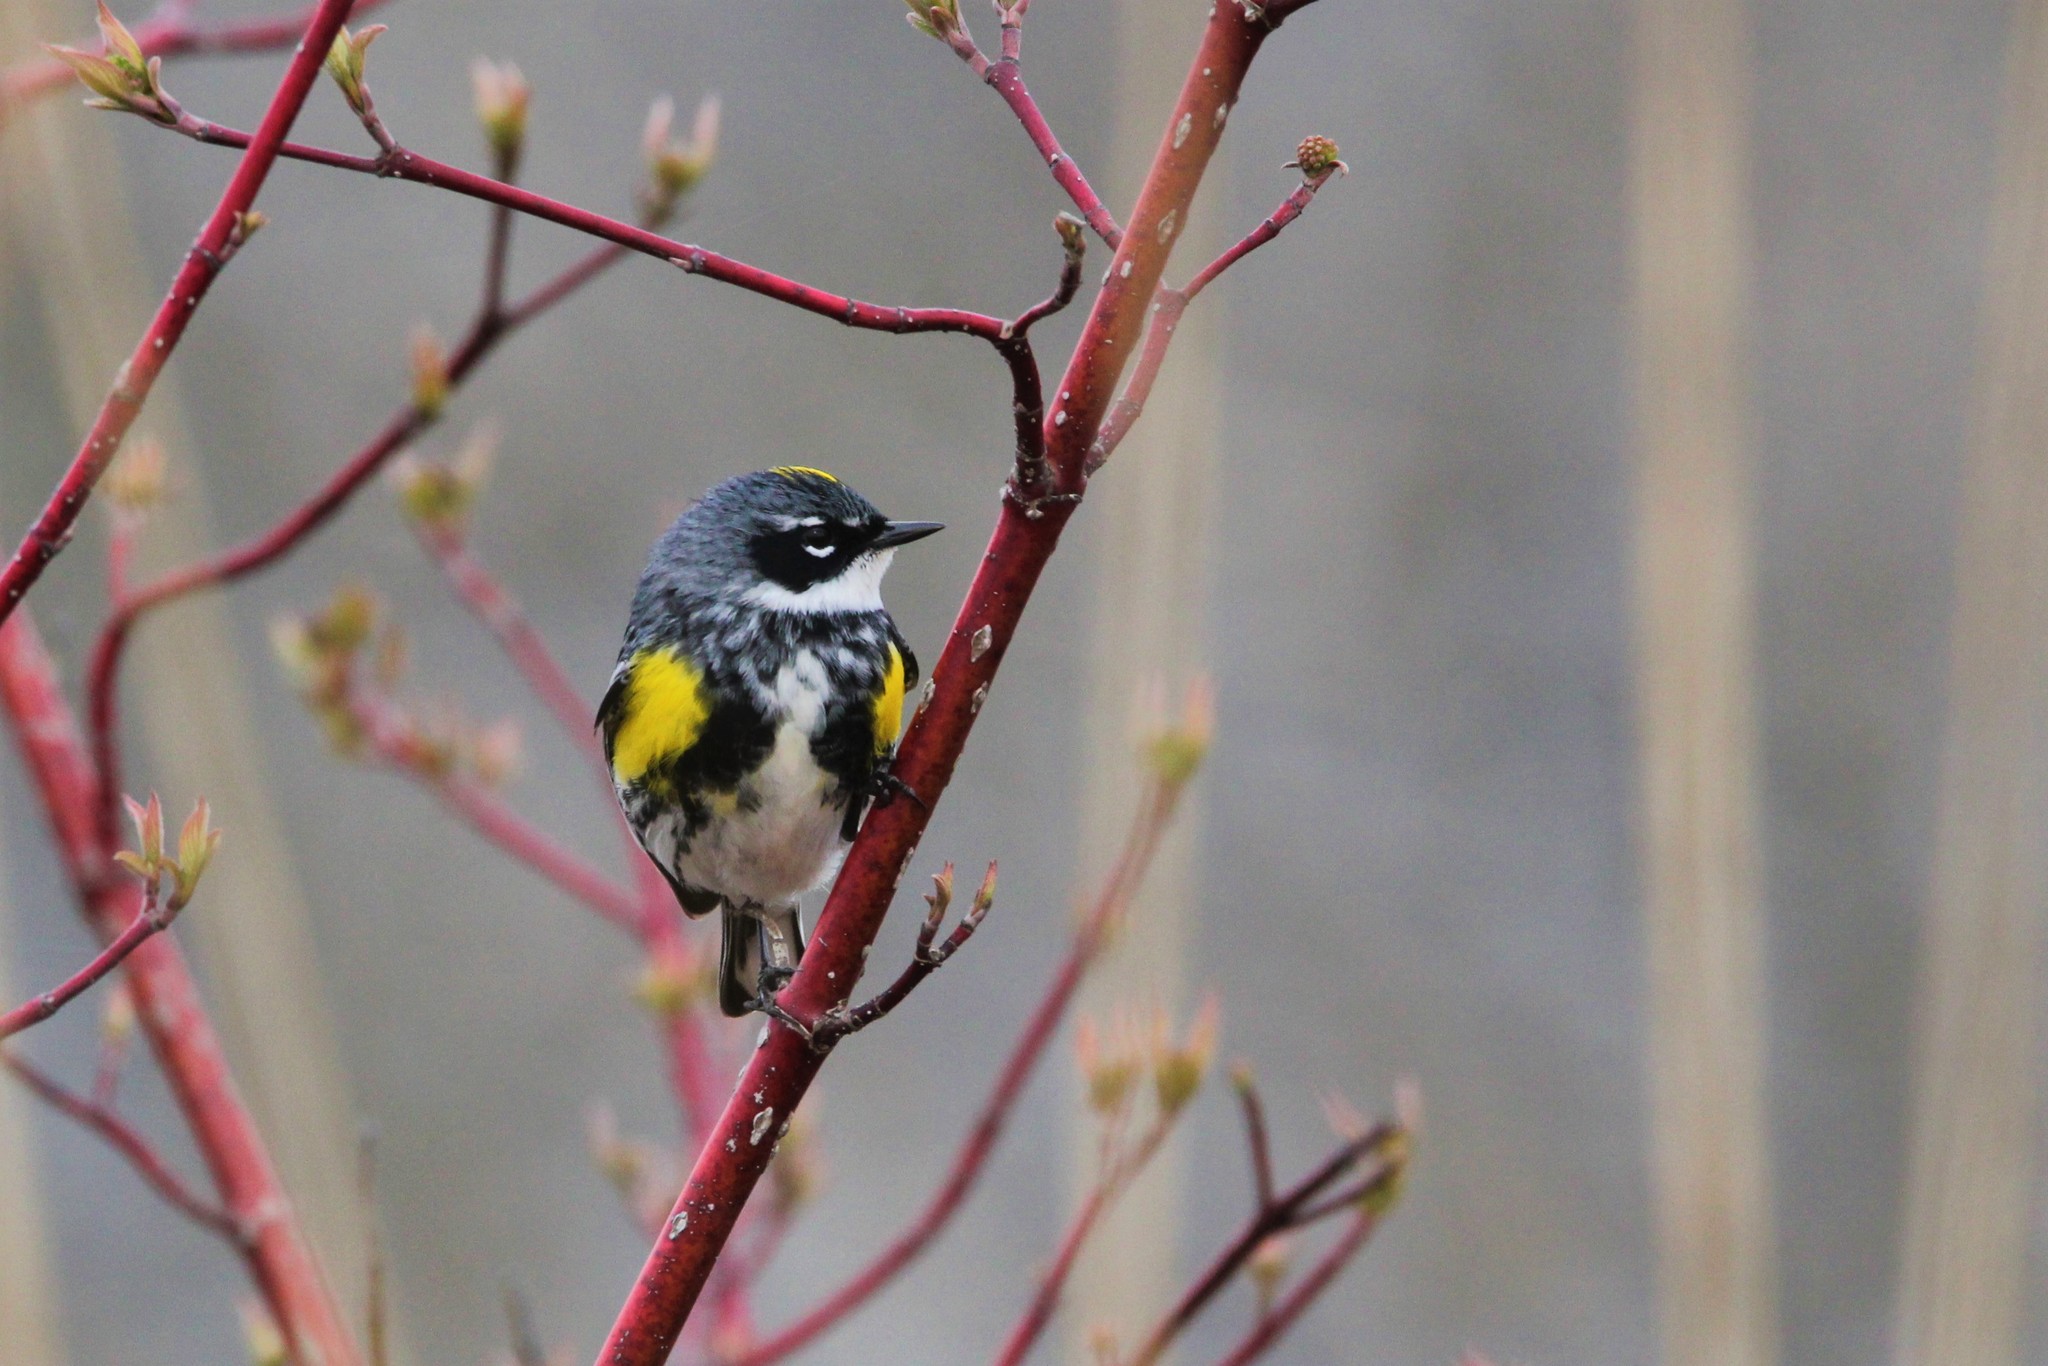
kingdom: Animalia
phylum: Chordata
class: Aves
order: Passeriformes
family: Parulidae
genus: Setophaga
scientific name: Setophaga coronata
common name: Myrtle warbler
